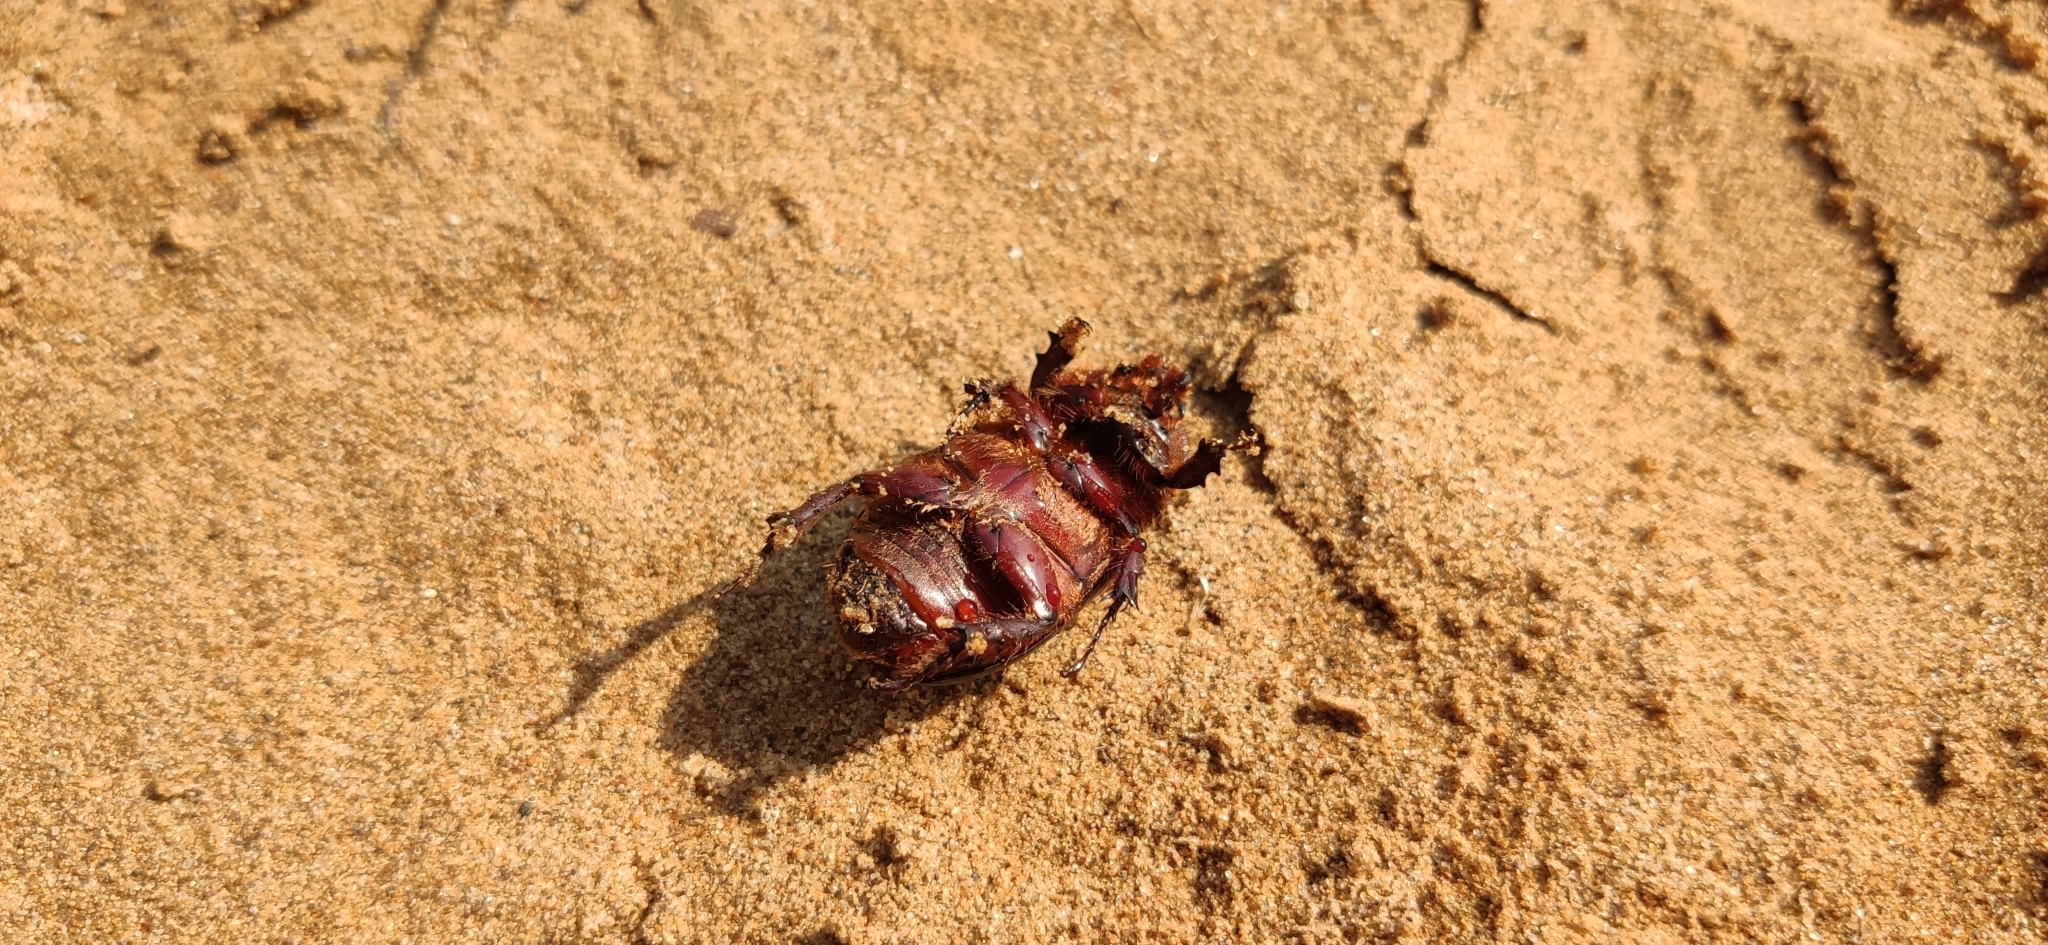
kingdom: Animalia
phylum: Arthropoda
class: Insecta
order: Coleoptera
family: Scarabaeidae
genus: Oryctes
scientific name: Oryctes nasicornis
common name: European rhinoceros beetle
